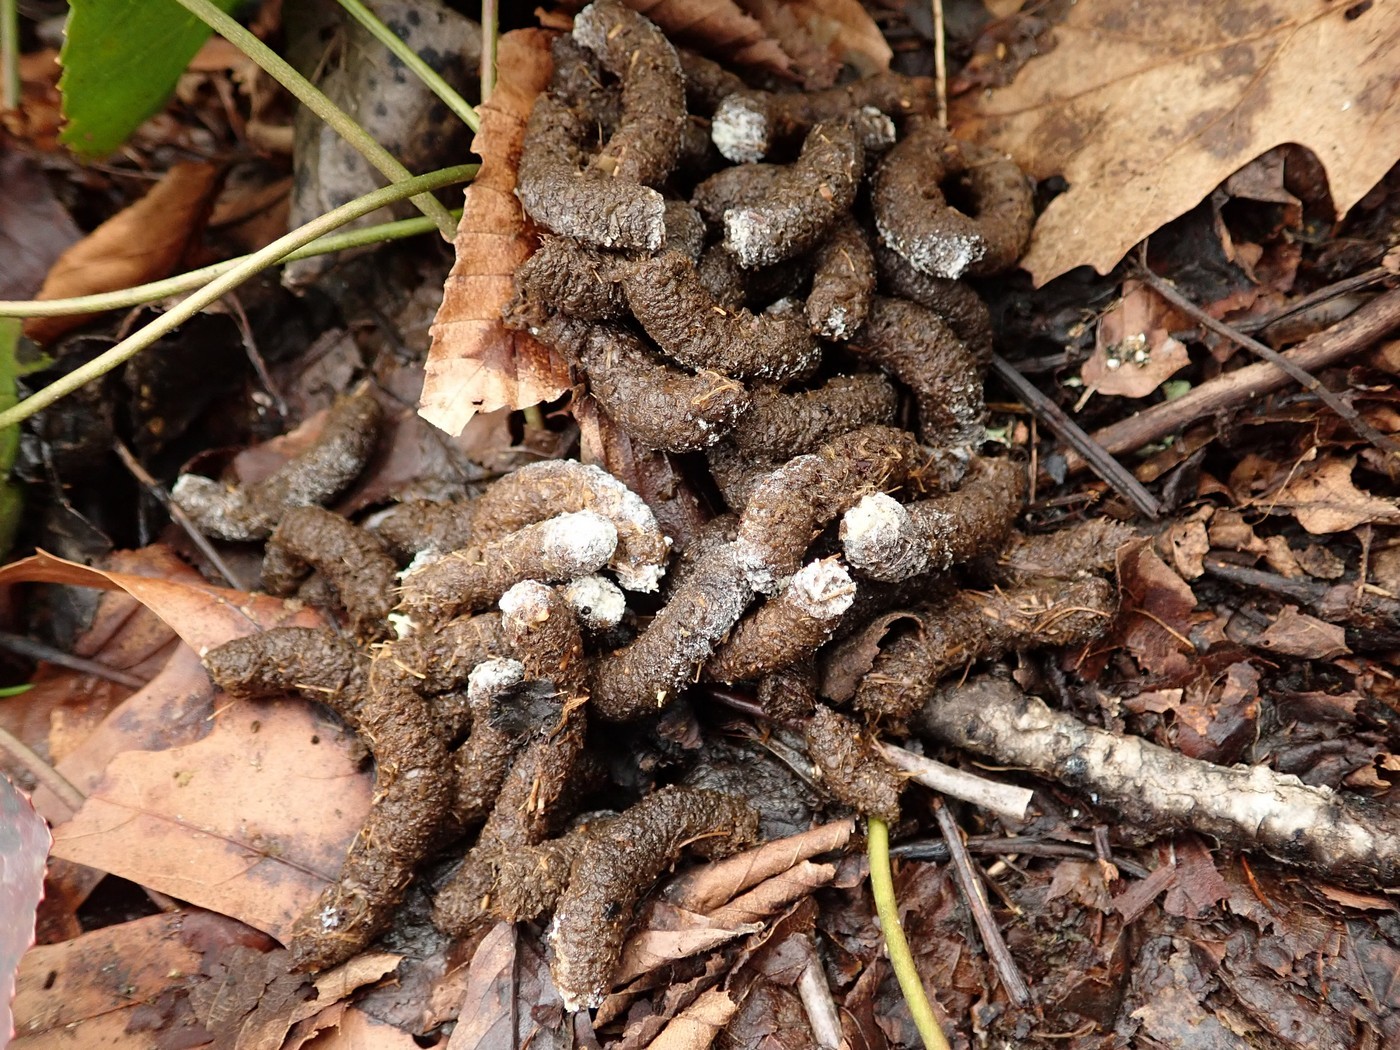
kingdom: Animalia
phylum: Chordata
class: Aves
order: Galliformes
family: Phasianidae
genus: Bonasa
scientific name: Bonasa umbellus
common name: Ruffed grouse
